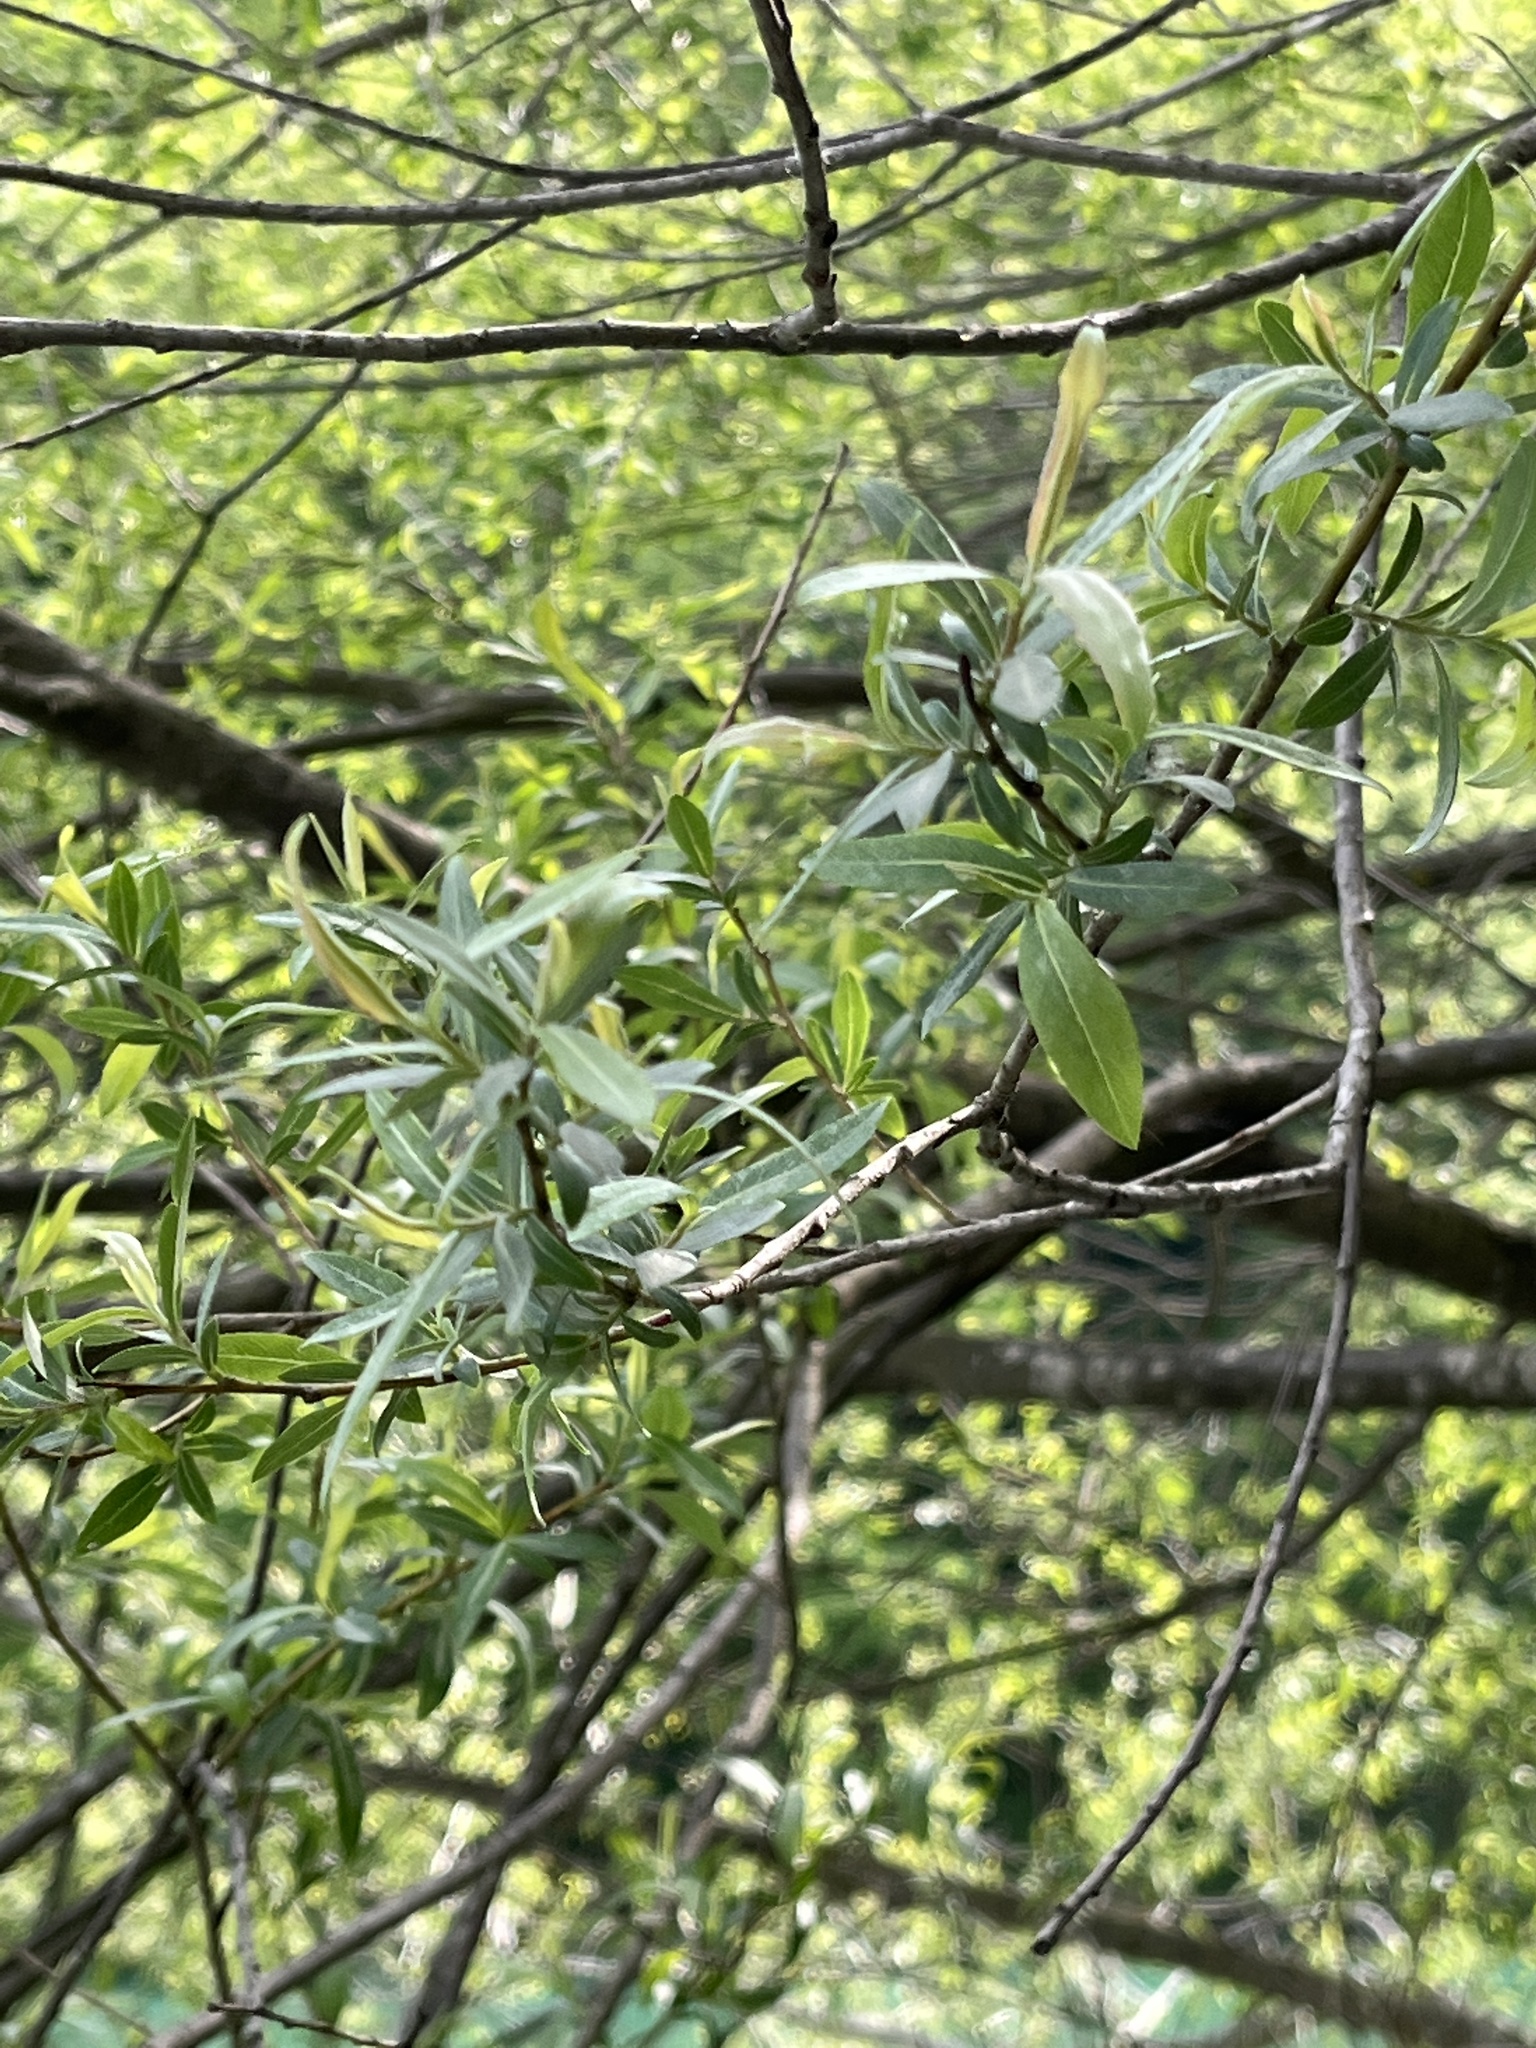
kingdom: Plantae
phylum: Tracheophyta
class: Magnoliopsida
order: Malpighiales
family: Salicaceae
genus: Salix
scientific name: Salix purpurea
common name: Purple willow
